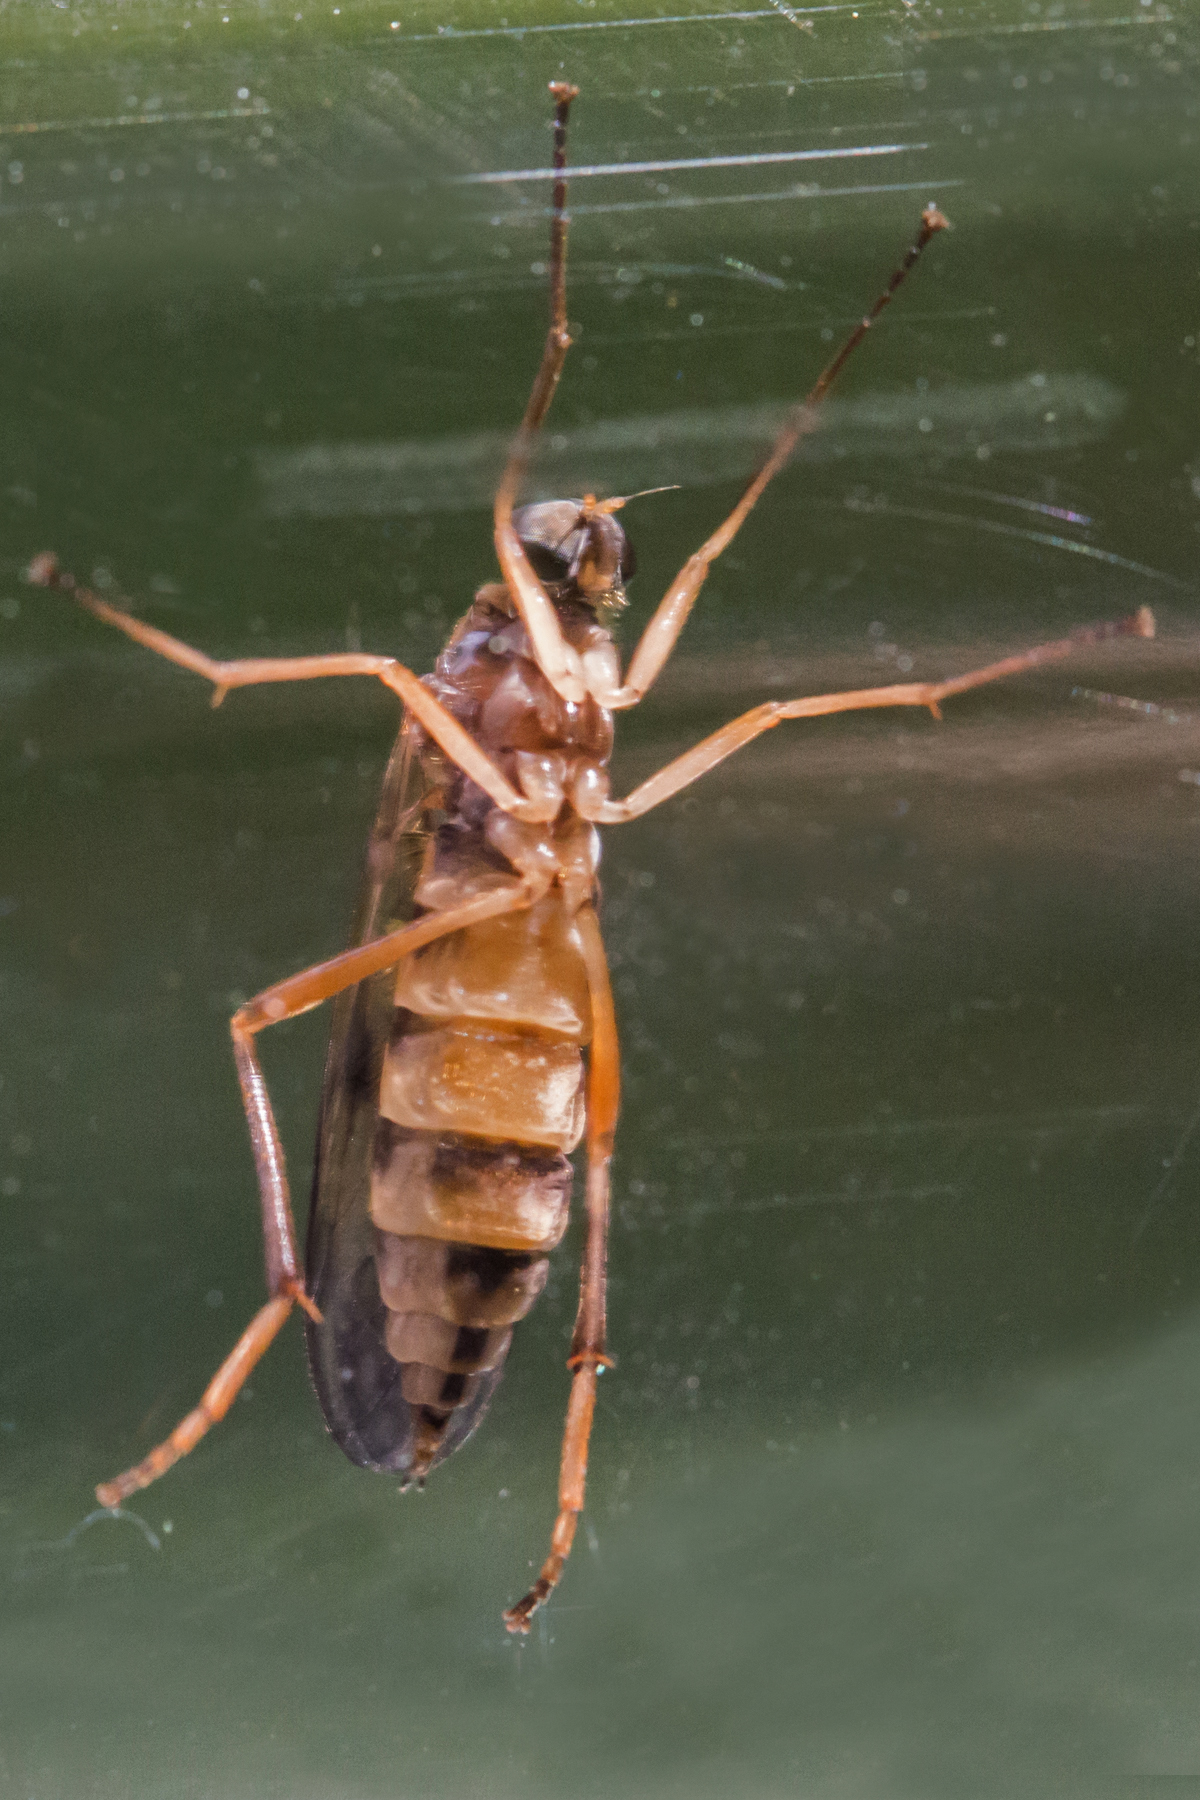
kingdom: Animalia
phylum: Arthropoda
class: Insecta
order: Diptera
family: Xylophagidae
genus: Dialysis
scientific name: Dialysis fasciventris
